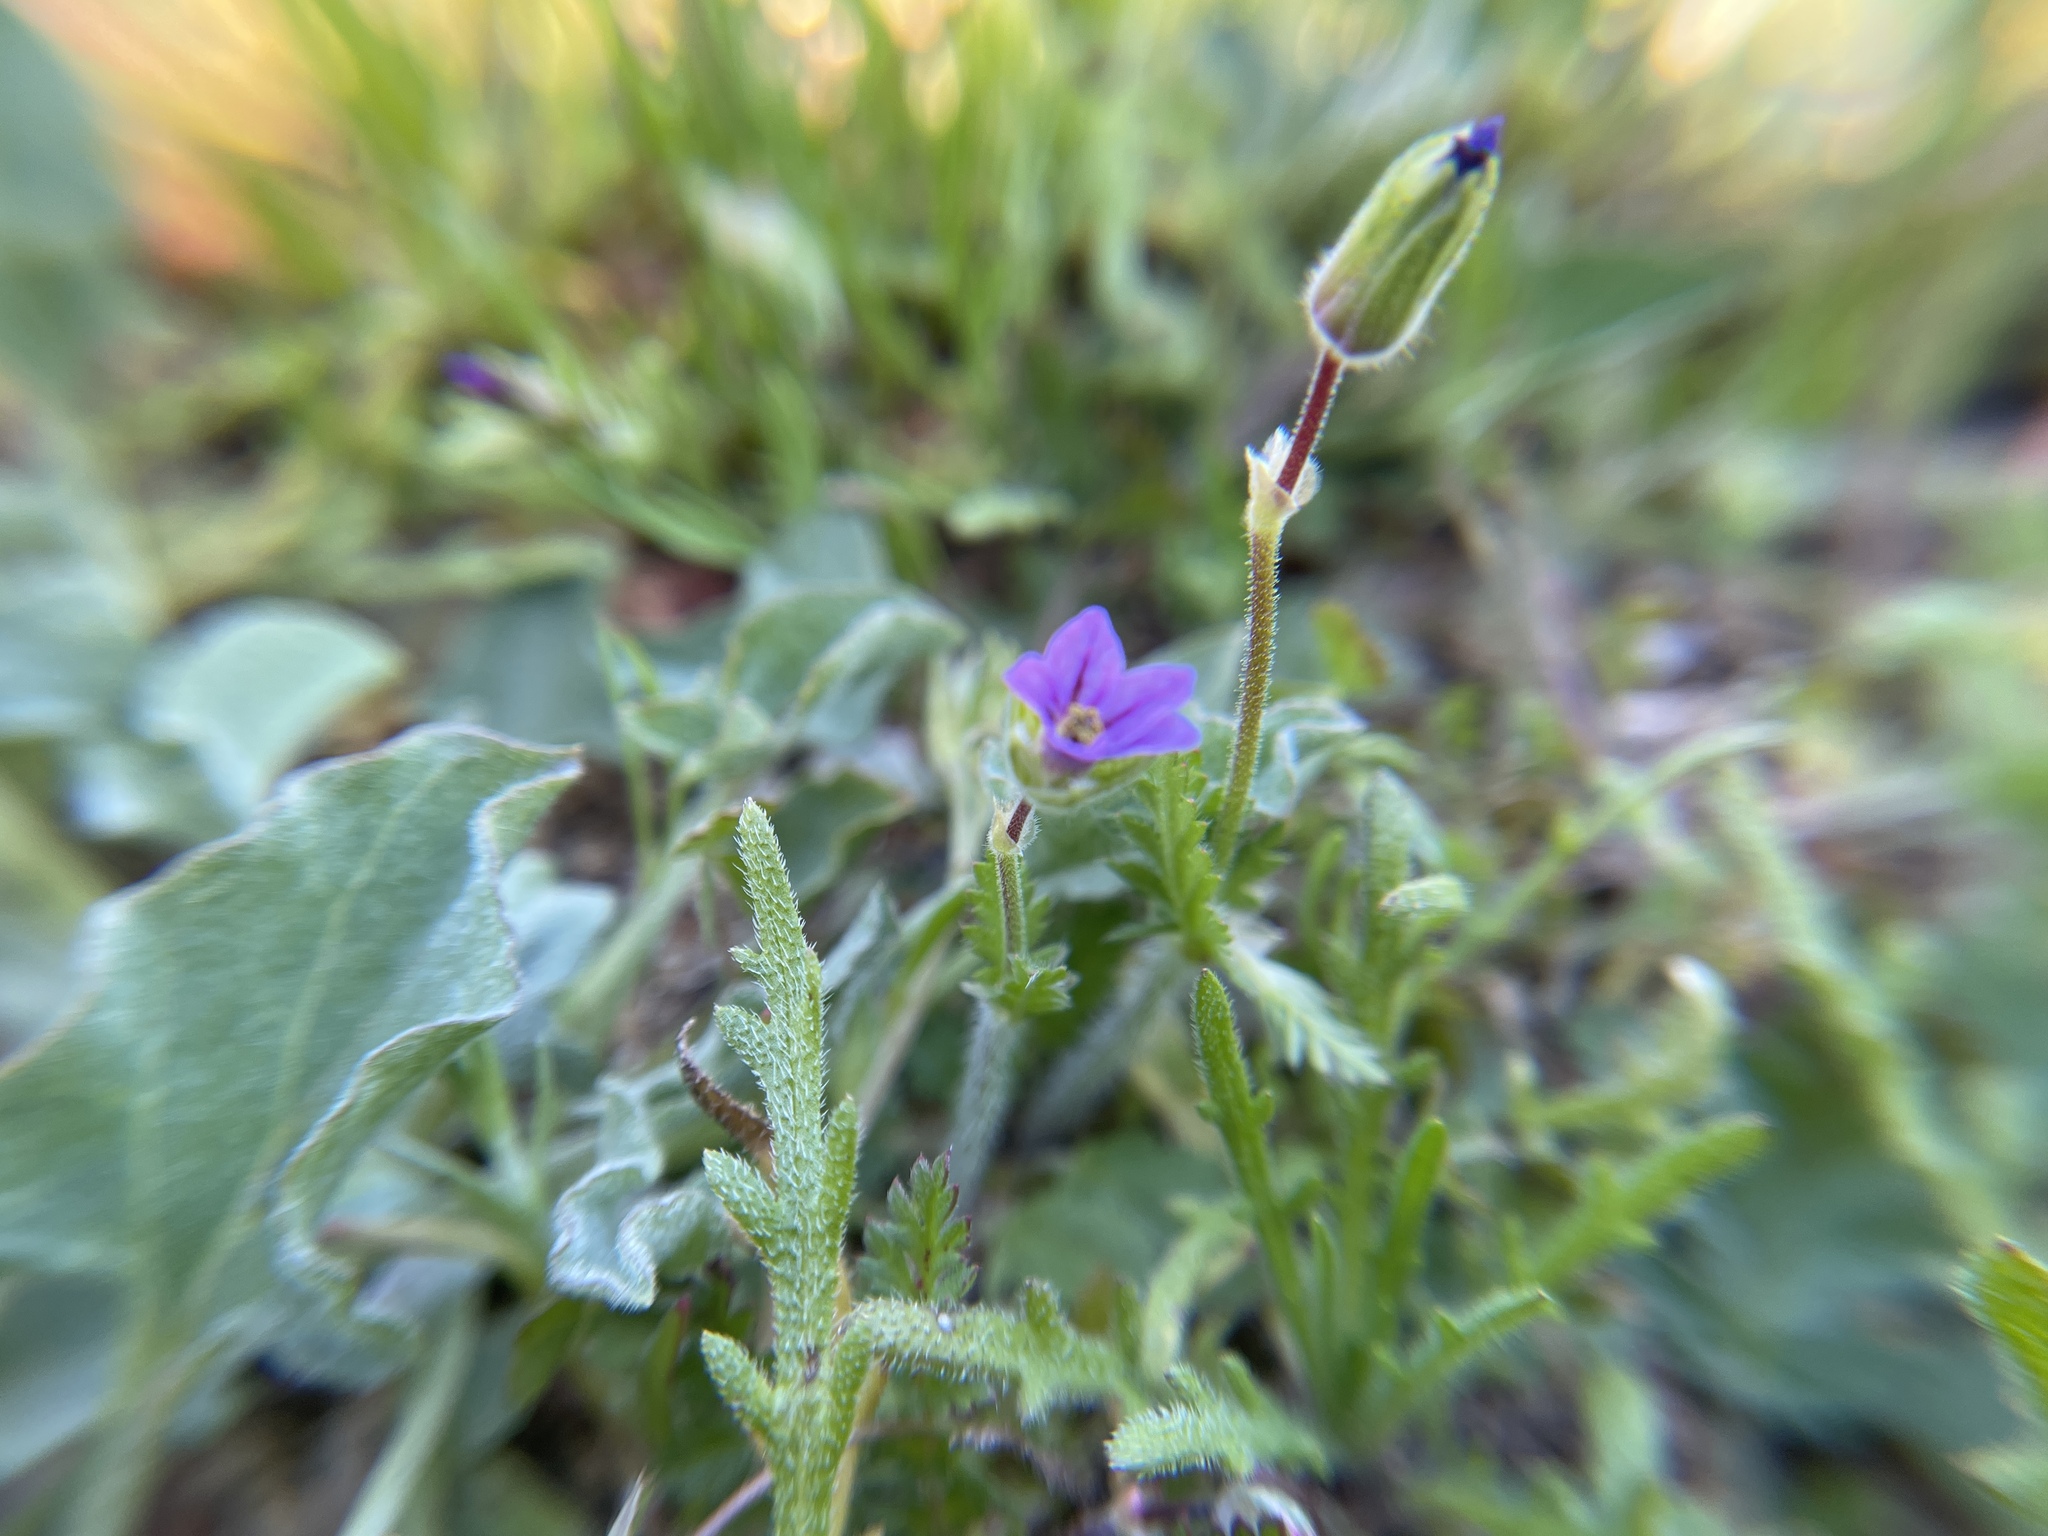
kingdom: Plantae
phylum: Tracheophyta
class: Magnoliopsida
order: Geraniales
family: Geraniaceae
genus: Erodium
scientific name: Erodium brachycarpum
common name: Hairy-pitted stork's-bill
